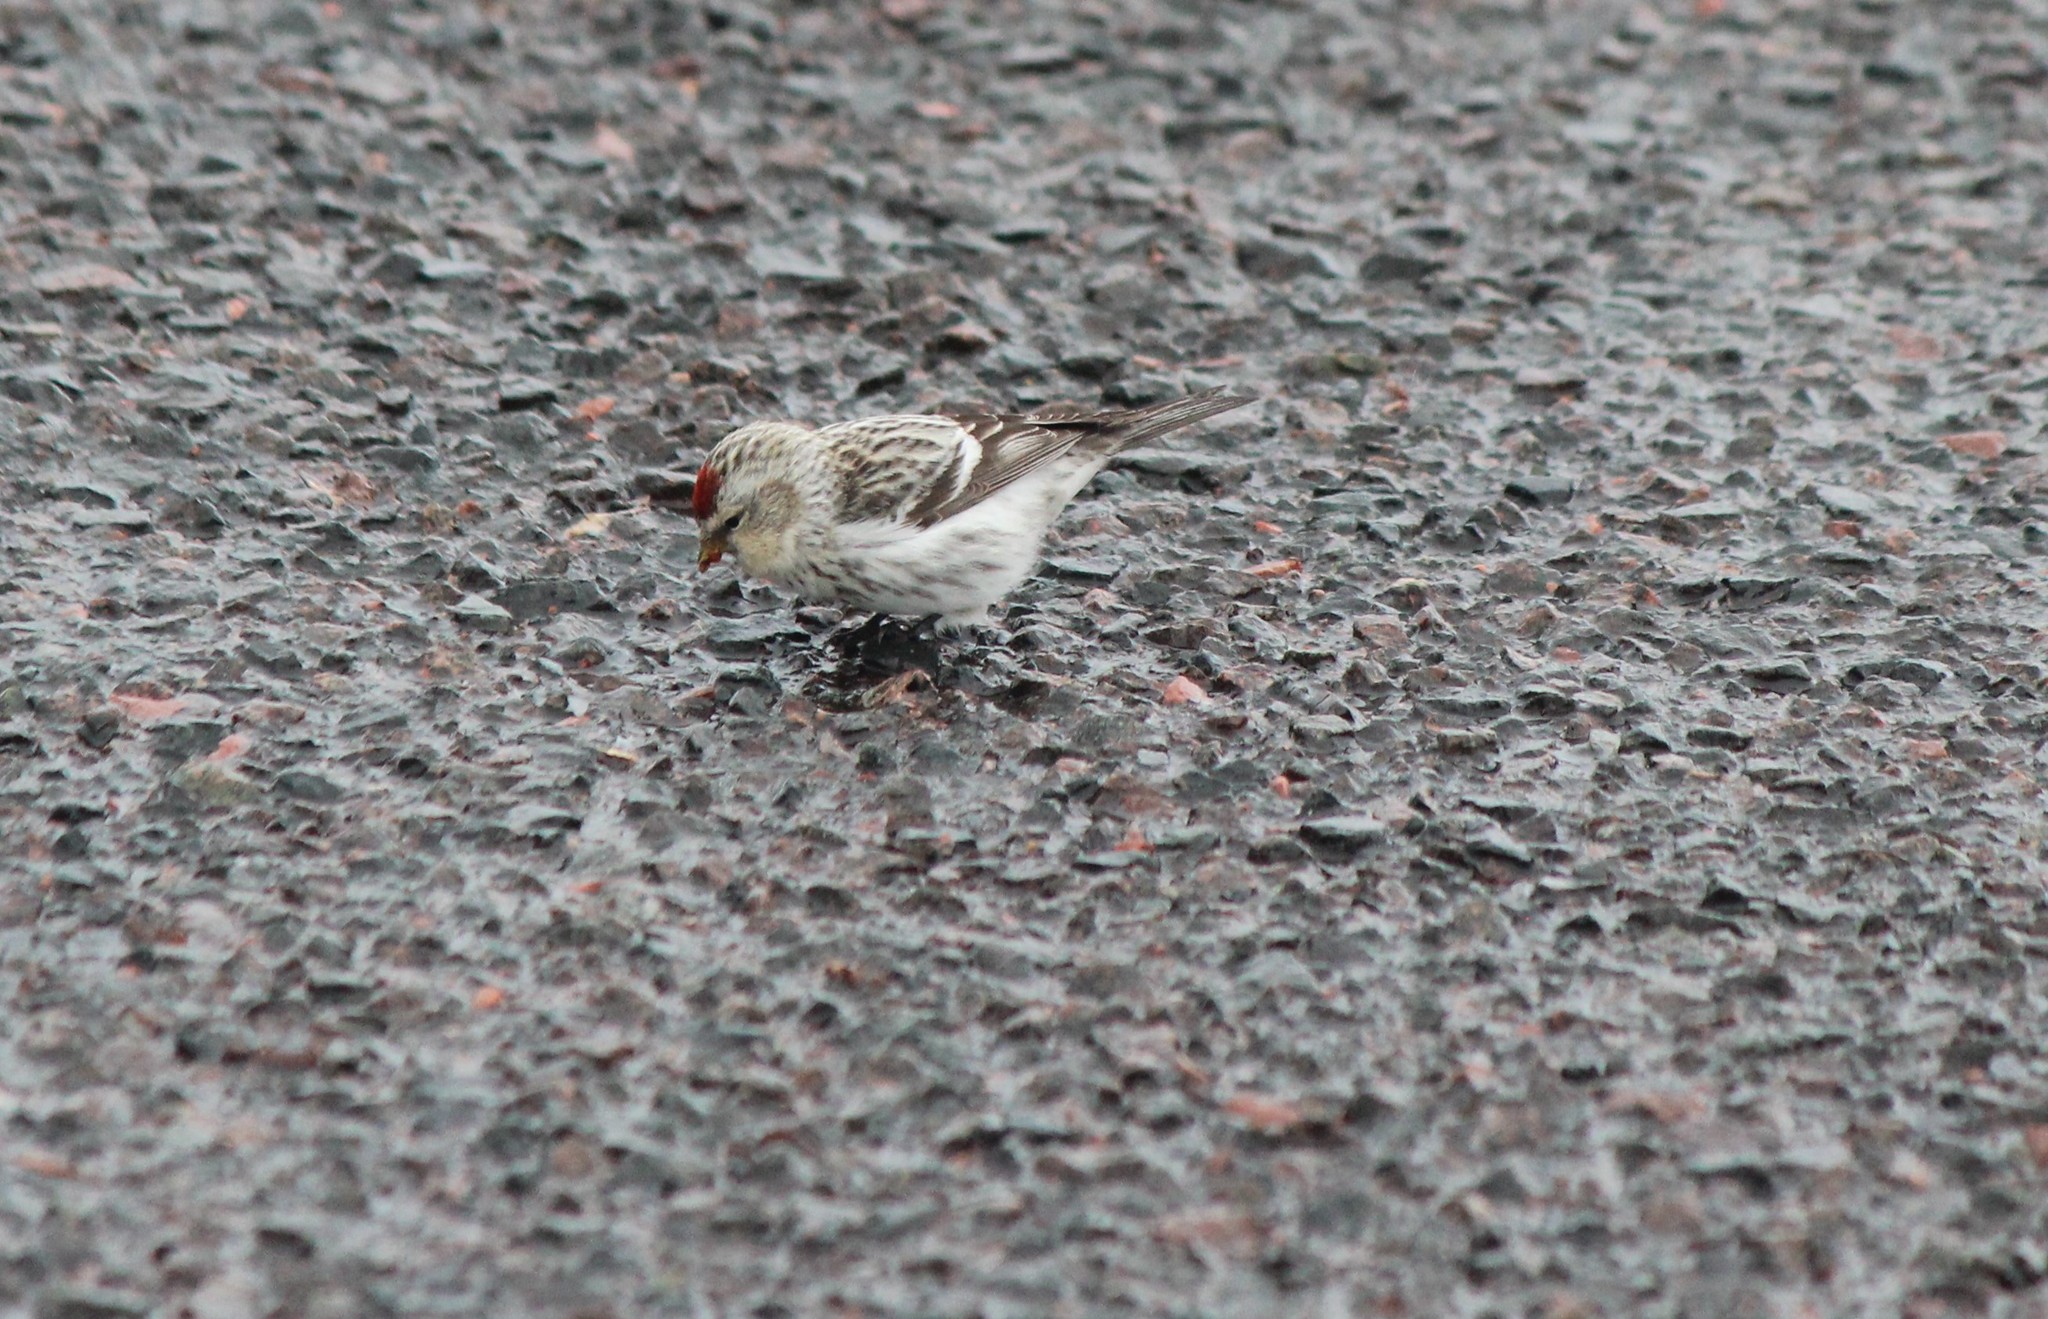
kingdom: Animalia
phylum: Chordata
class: Aves
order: Passeriformes
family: Fringillidae
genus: Acanthis
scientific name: Acanthis hornemanni
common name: Arctic redpoll
